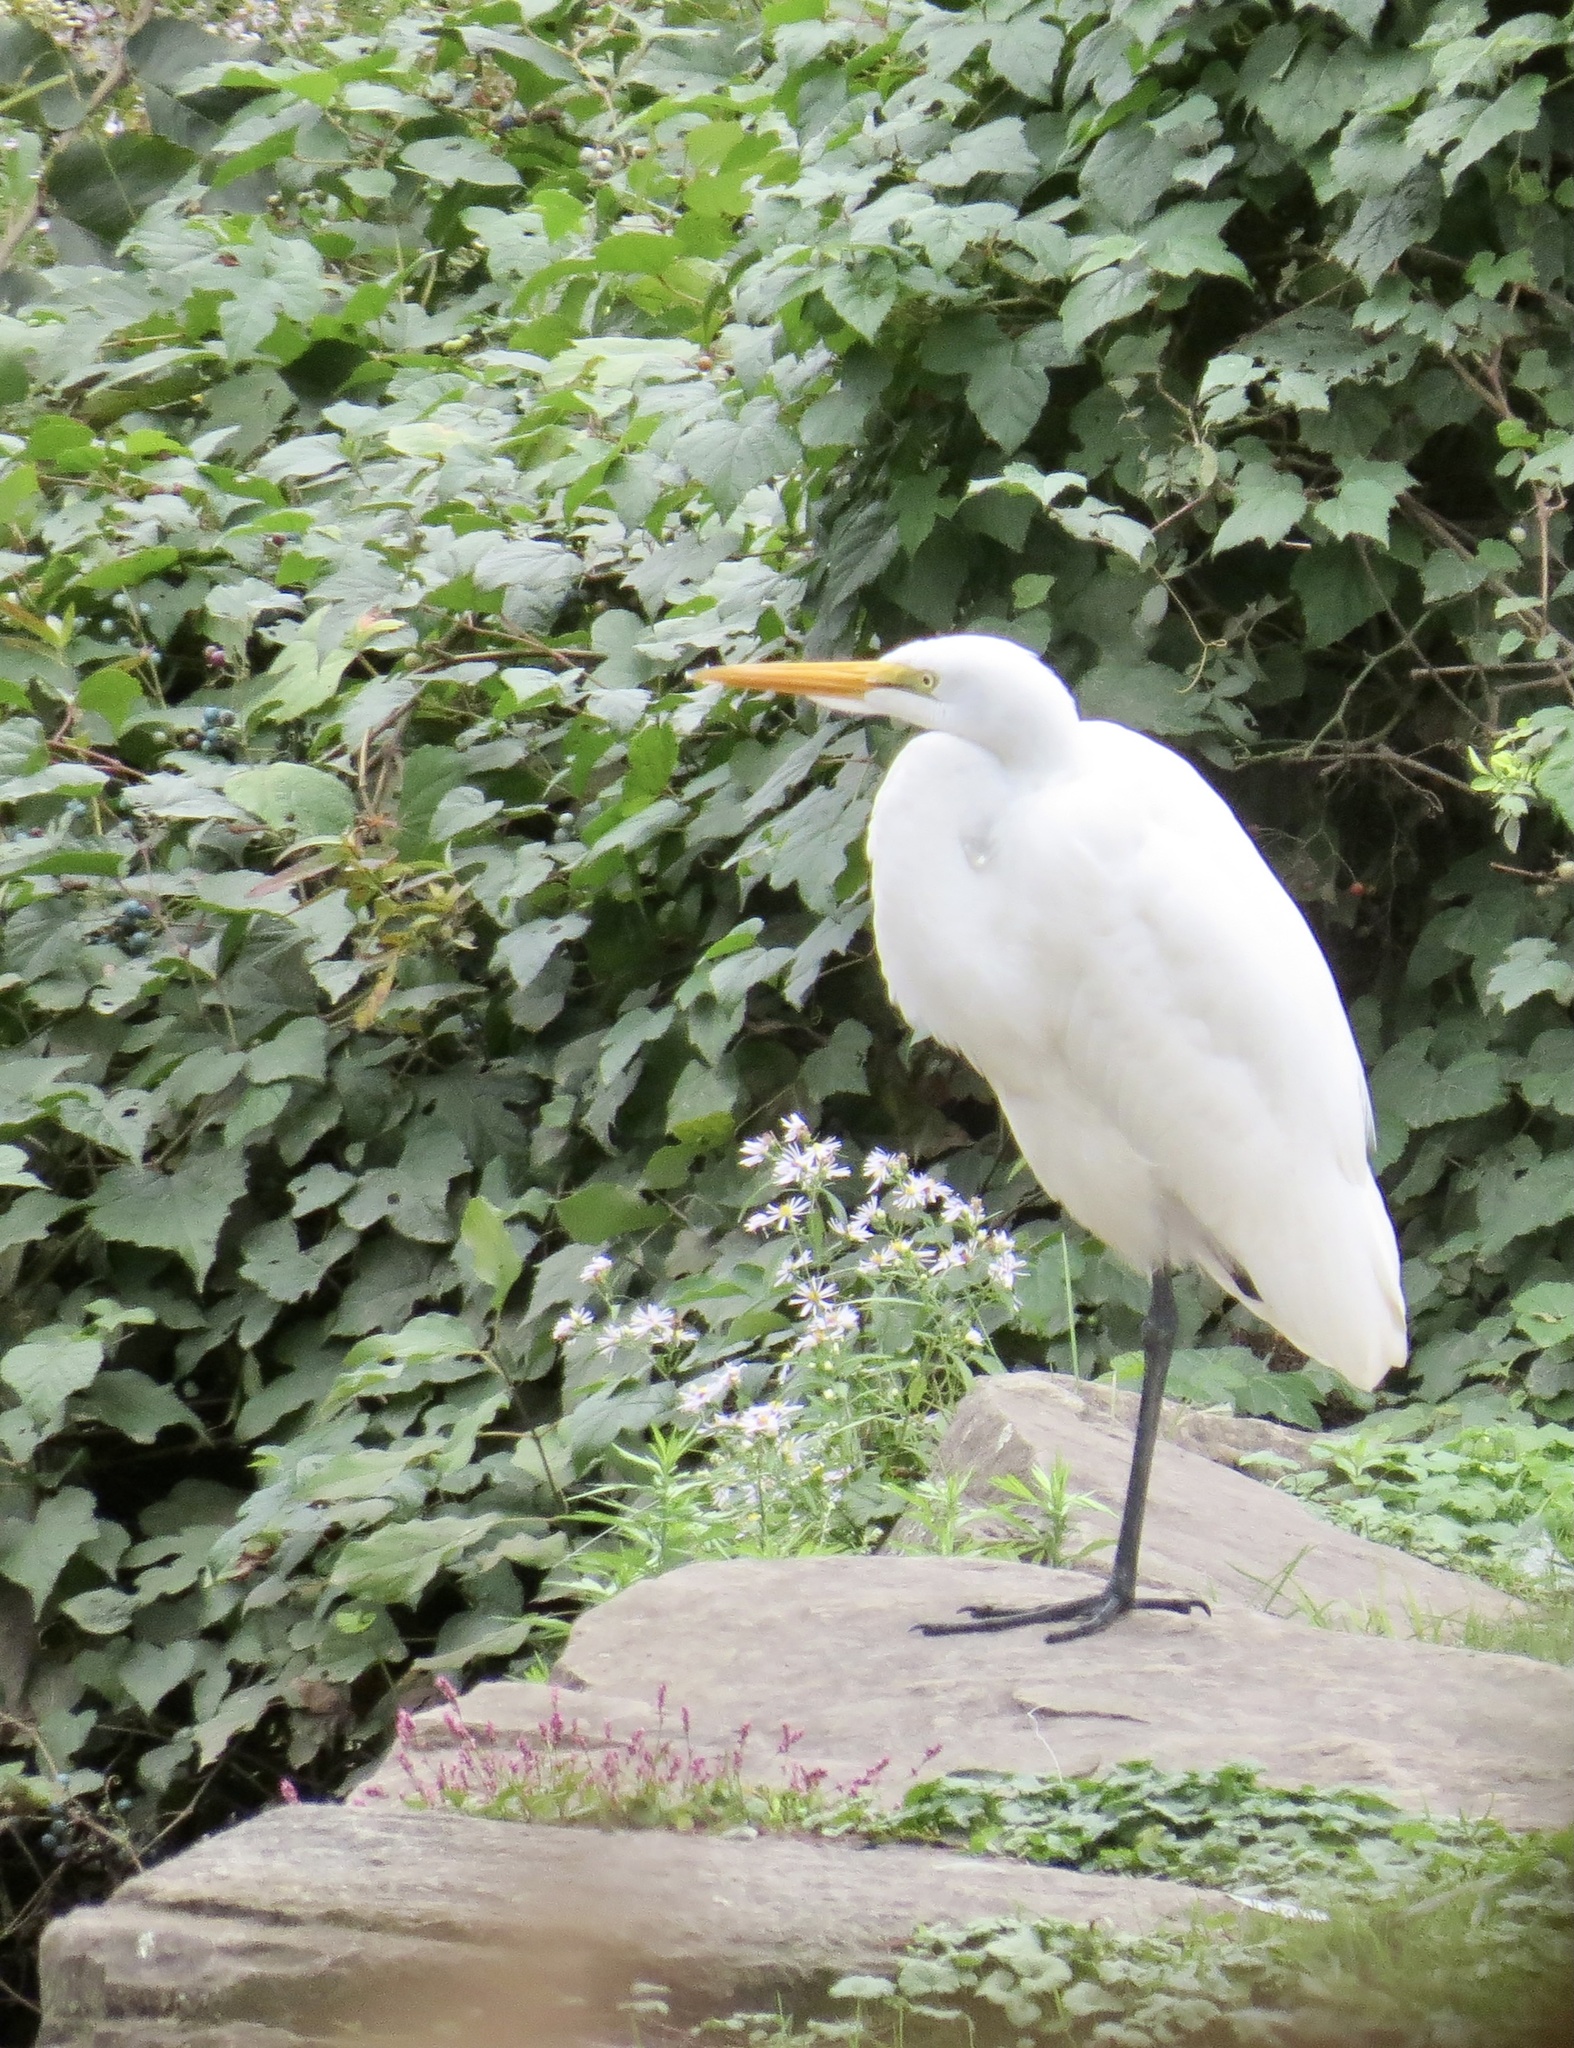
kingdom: Animalia
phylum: Chordata
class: Aves
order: Pelecaniformes
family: Ardeidae
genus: Ardea
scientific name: Ardea alba
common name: Great egret
